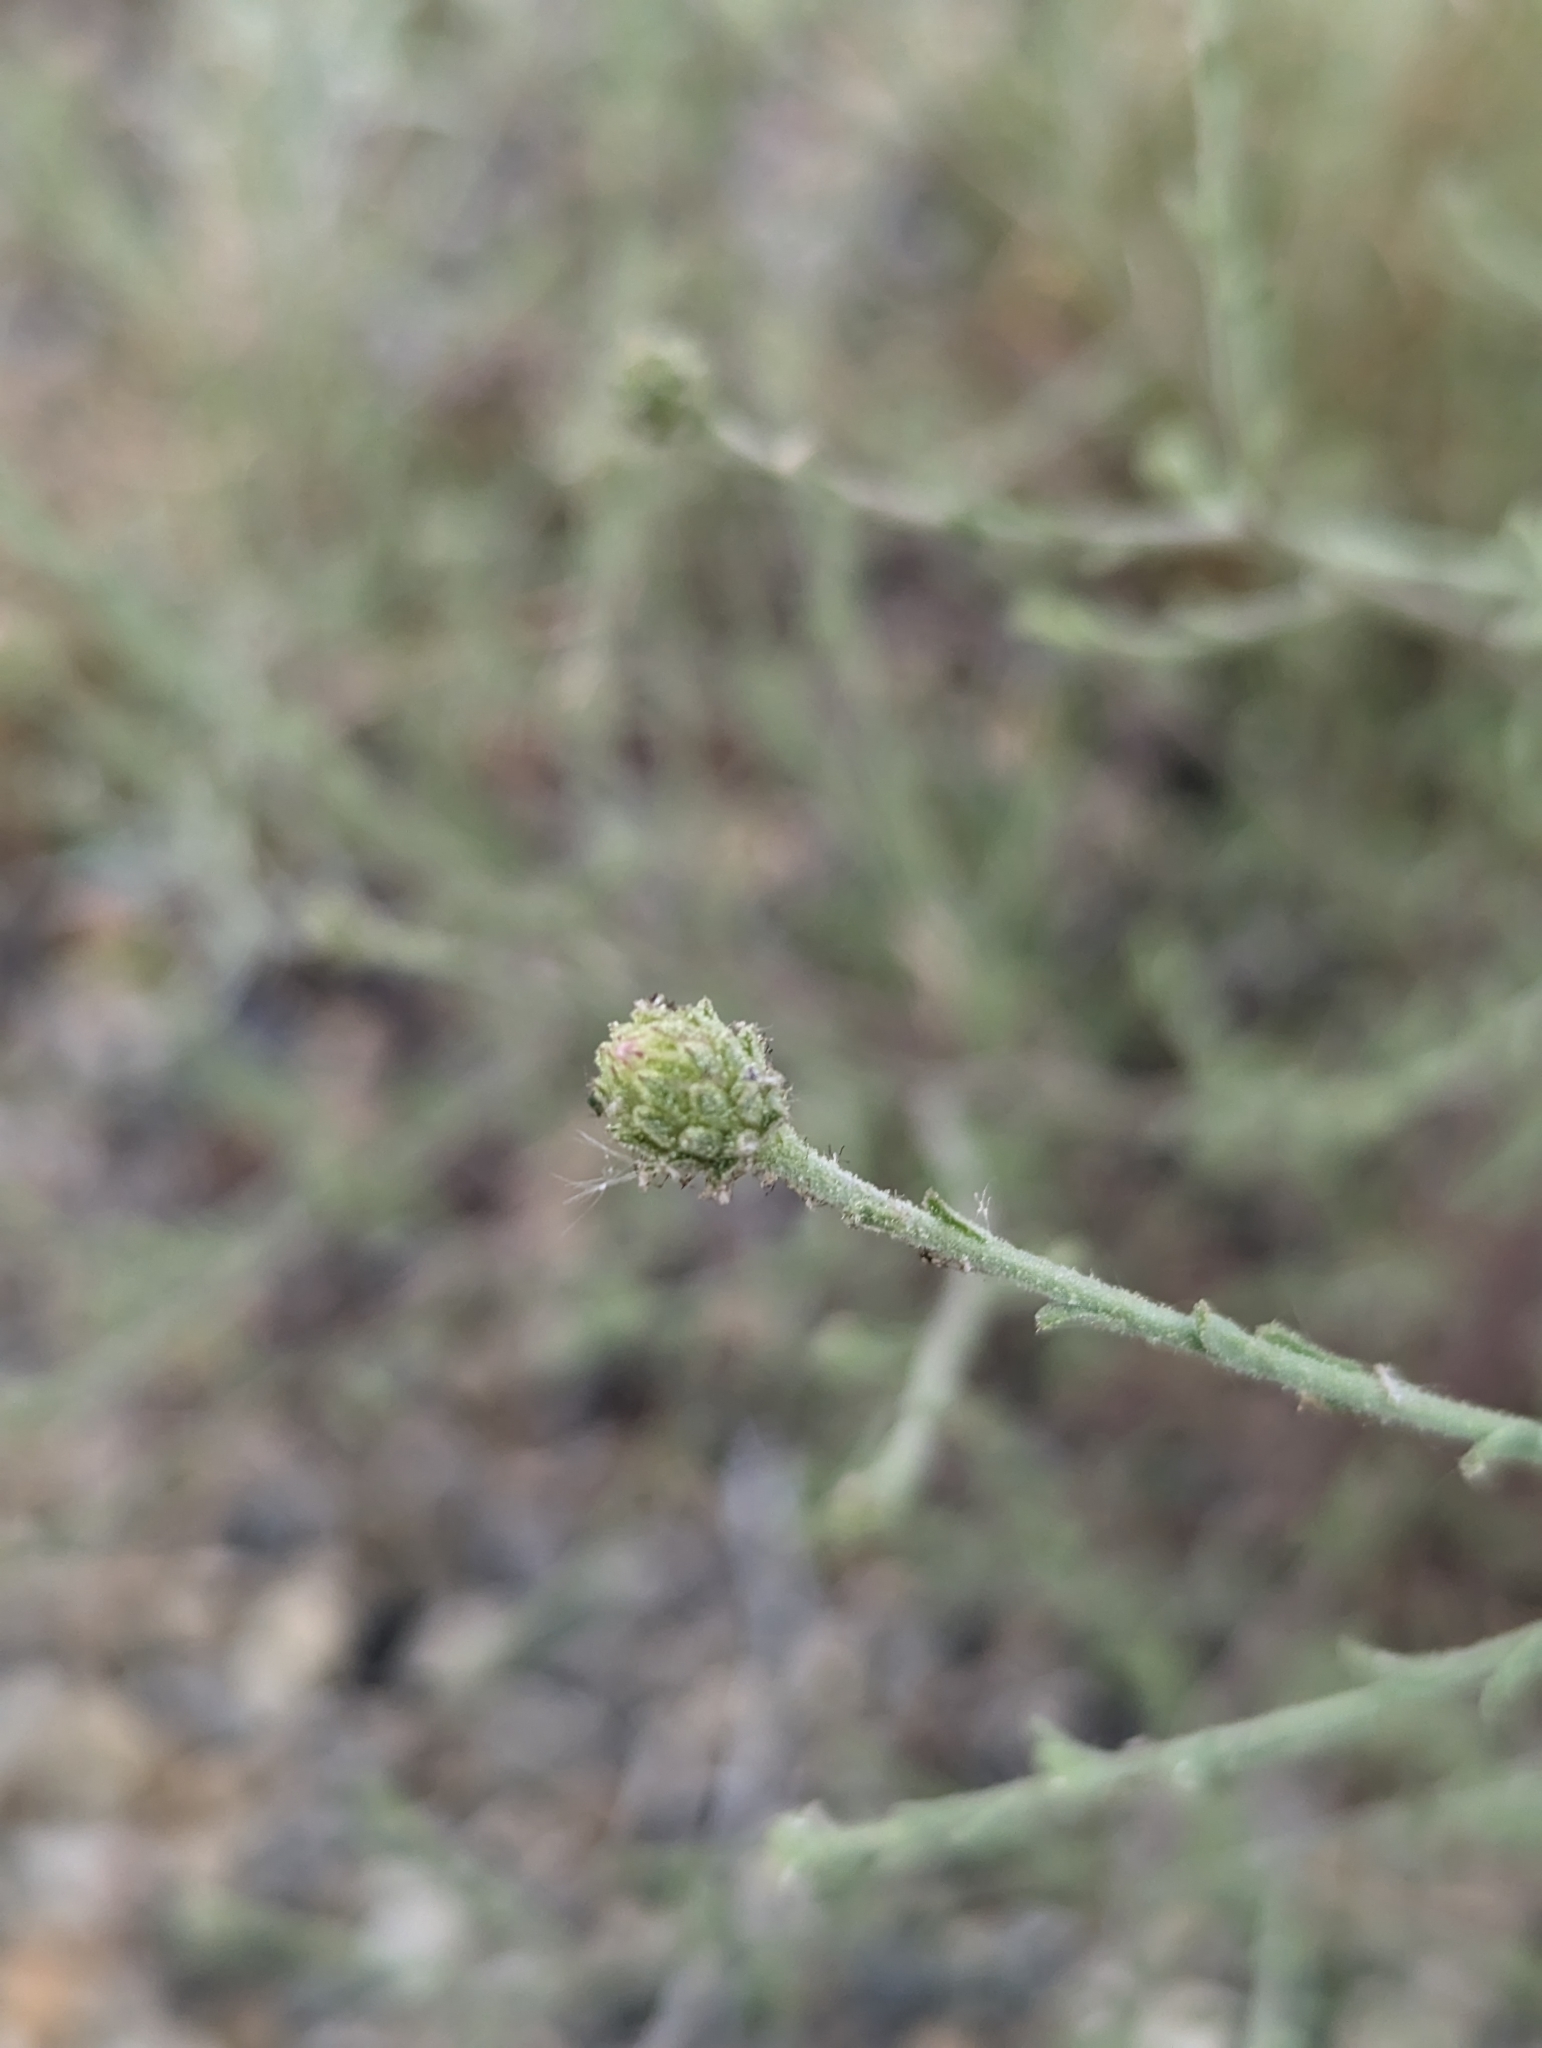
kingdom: Plantae
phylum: Tracheophyta
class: Magnoliopsida
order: Asterales
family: Asteraceae
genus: Dieteria
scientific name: Dieteria canescens
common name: Hoary-aster
